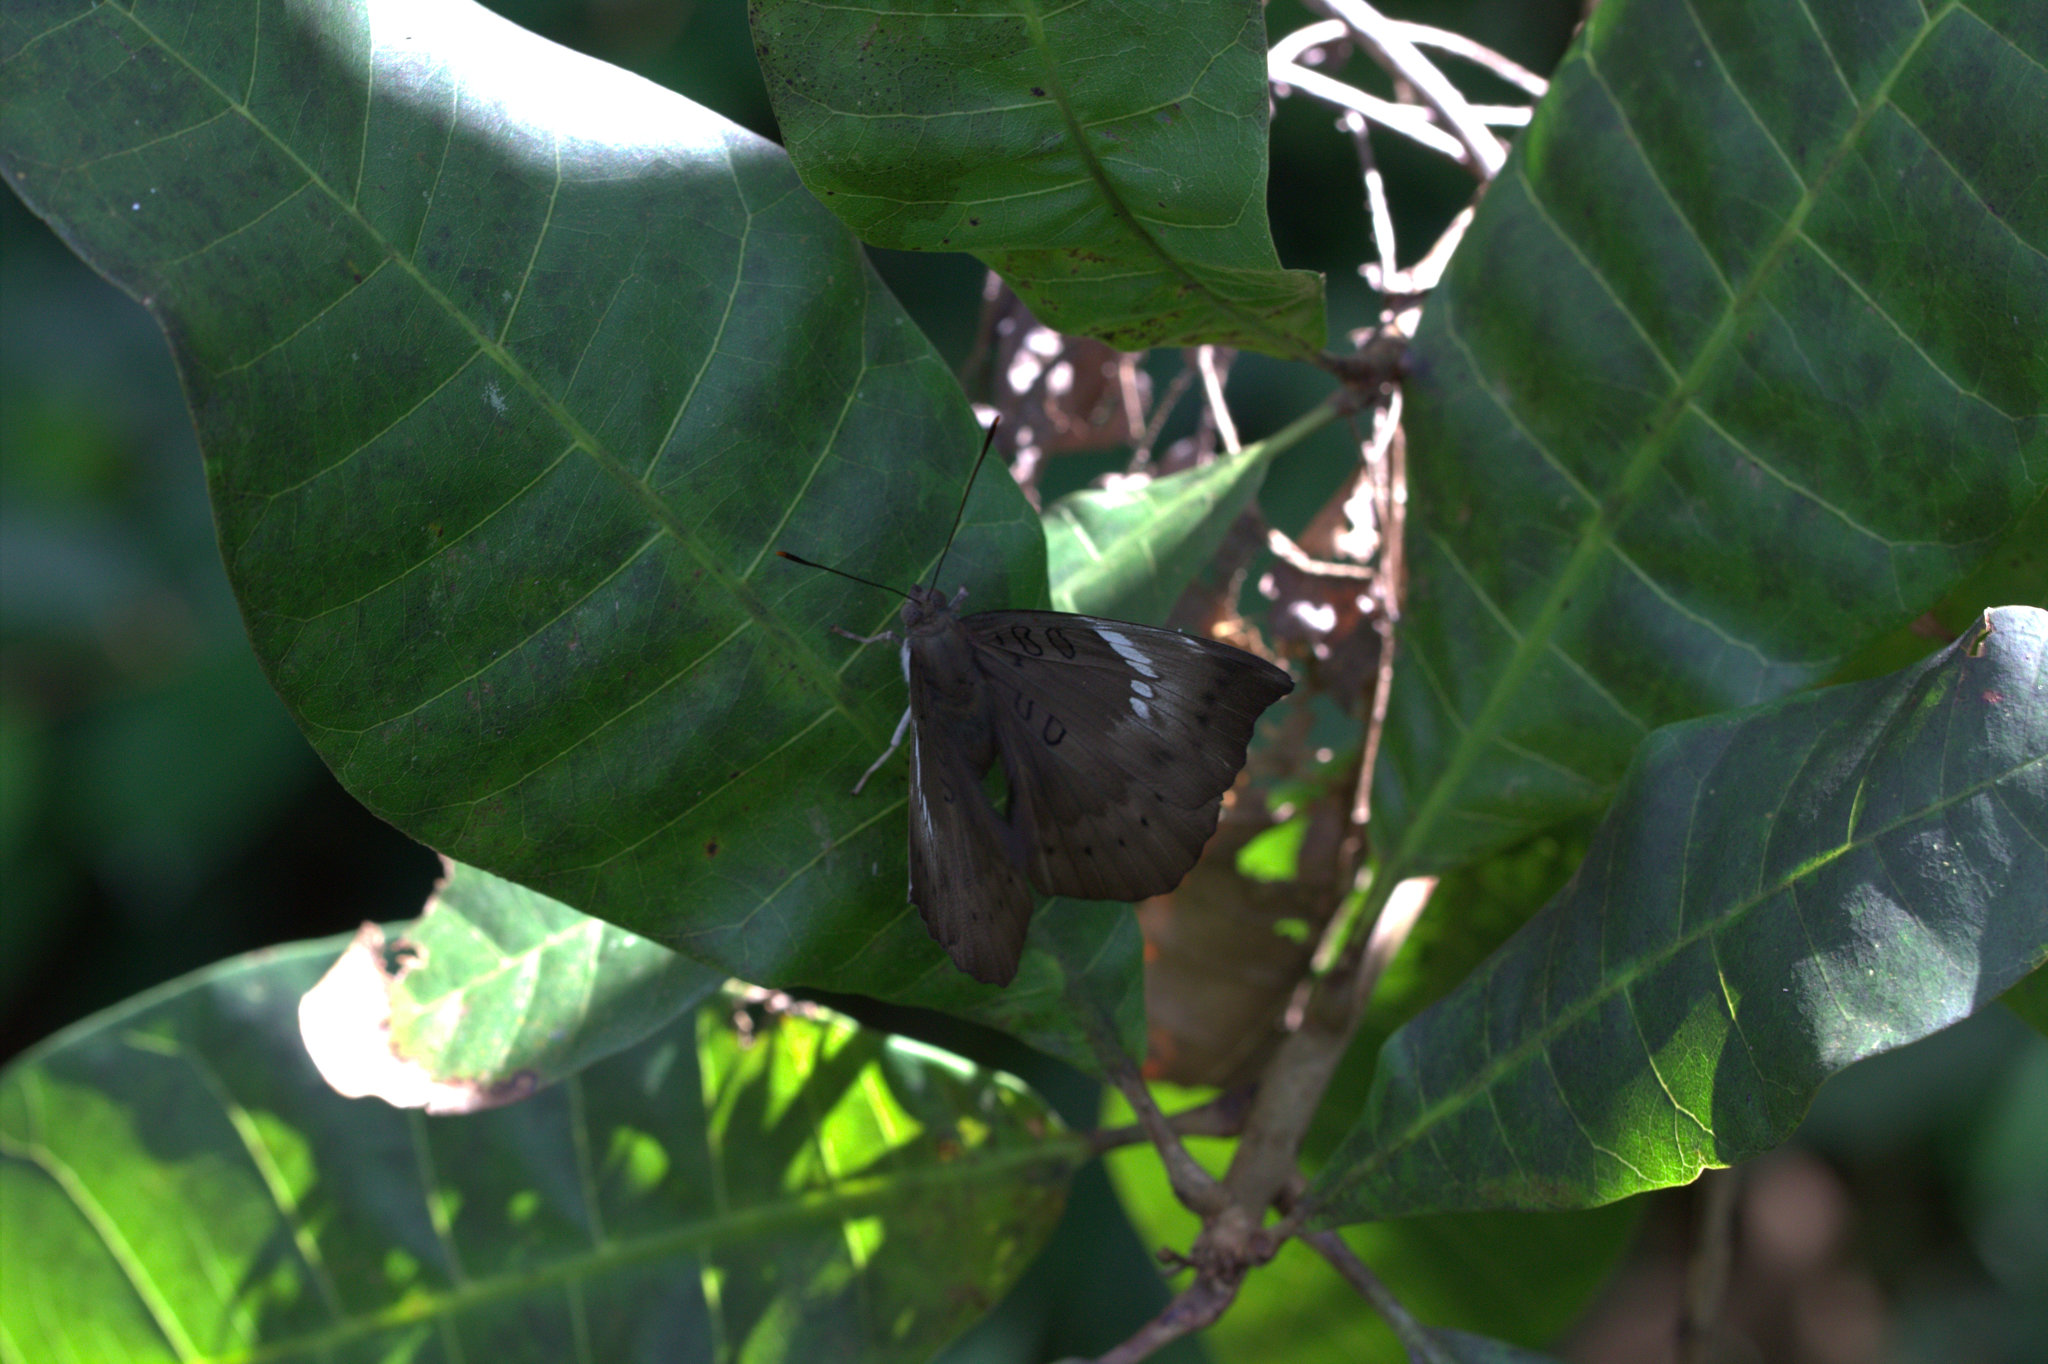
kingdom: Animalia
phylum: Arthropoda
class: Insecta
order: Lepidoptera
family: Nymphalidae
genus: Euthalia
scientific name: Euthalia aconthea
